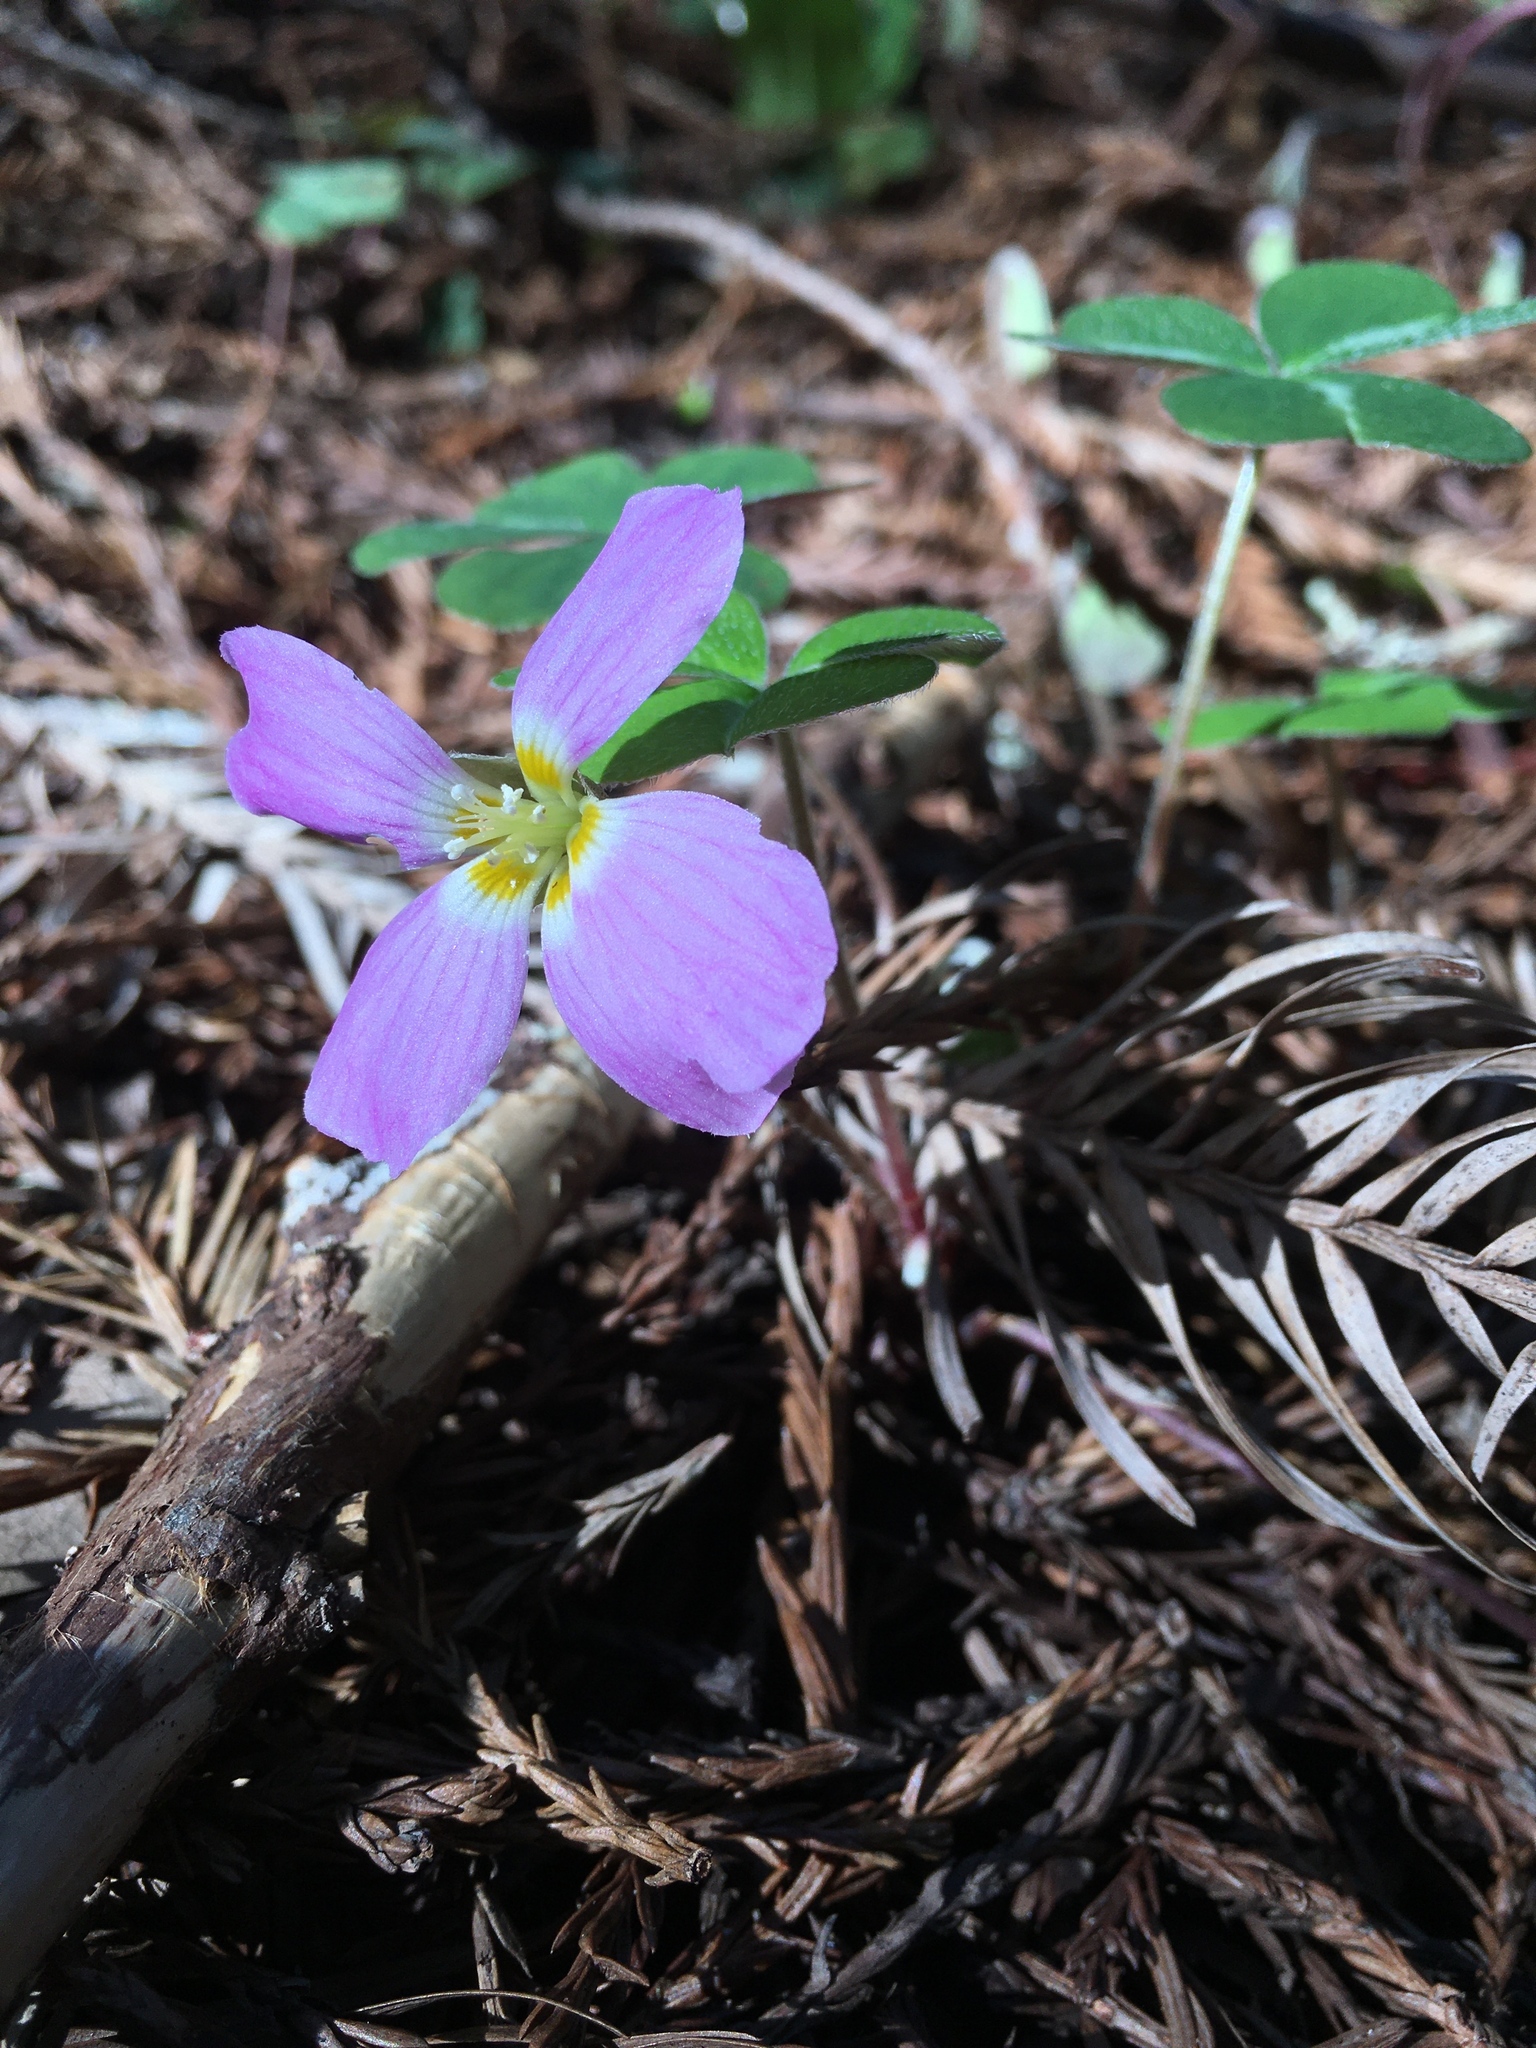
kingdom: Plantae
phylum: Tracheophyta
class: Magnoliopsida
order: Oxalidales
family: Oxalidaceae
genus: Oxalis
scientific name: Oxalis oregana
